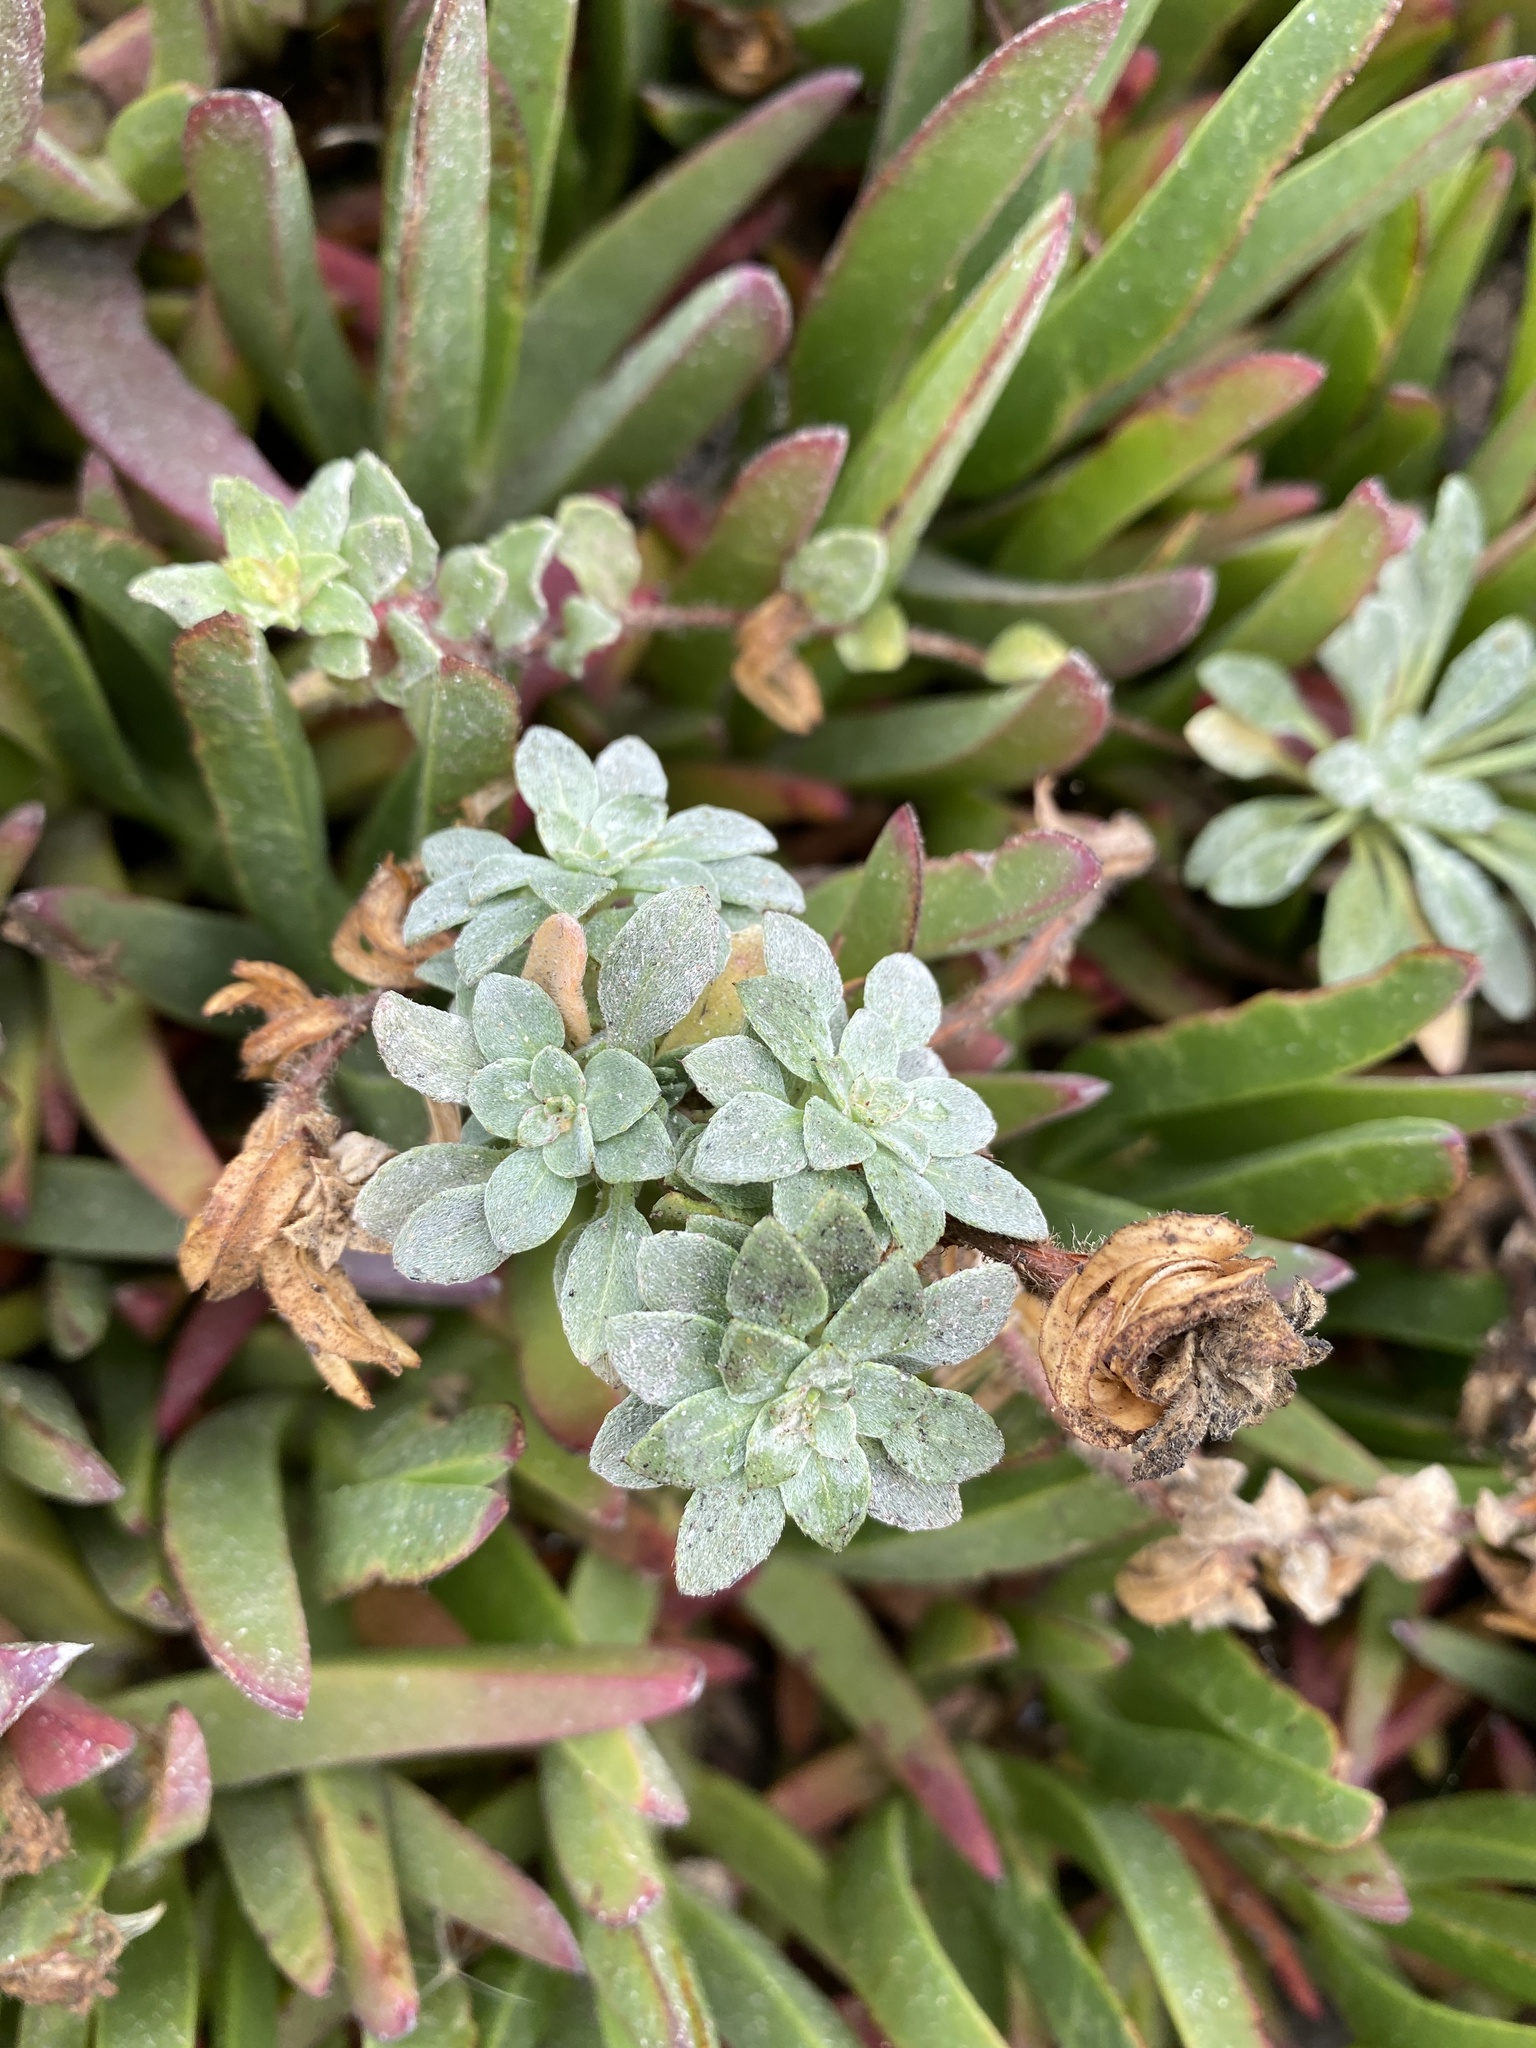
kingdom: Plantae
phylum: Tracheophyta
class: Magnoliopsida
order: Myrtales
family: Onagraceae
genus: Camissoniopsis
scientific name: Camissoniopsis cheiranthifolia
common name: Beach suncup
